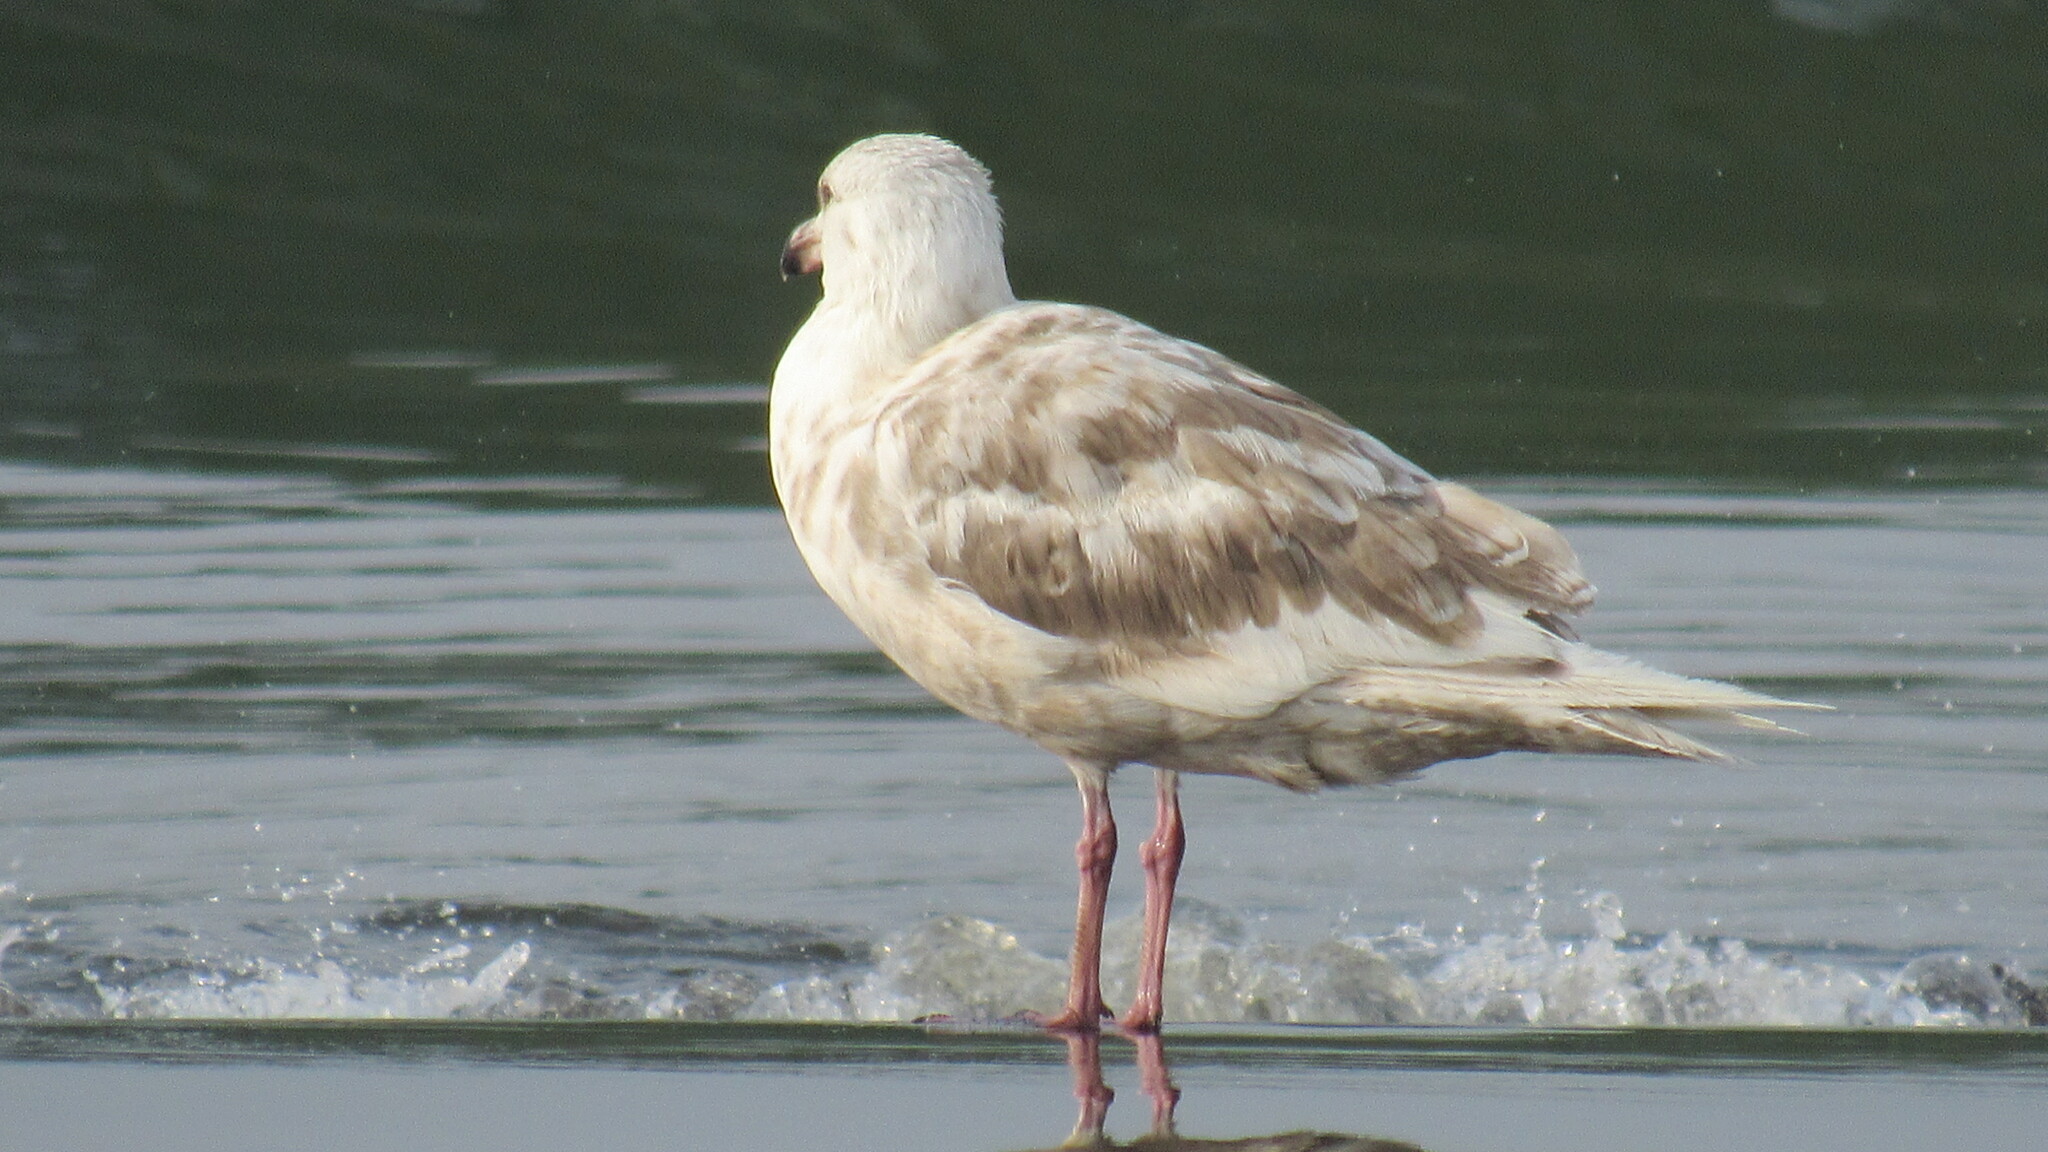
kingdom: Animalia
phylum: Chordata
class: Aves
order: Charadriiformes
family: Laridae
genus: Larus
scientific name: Larus schistisagus
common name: Slaty-backed gull
